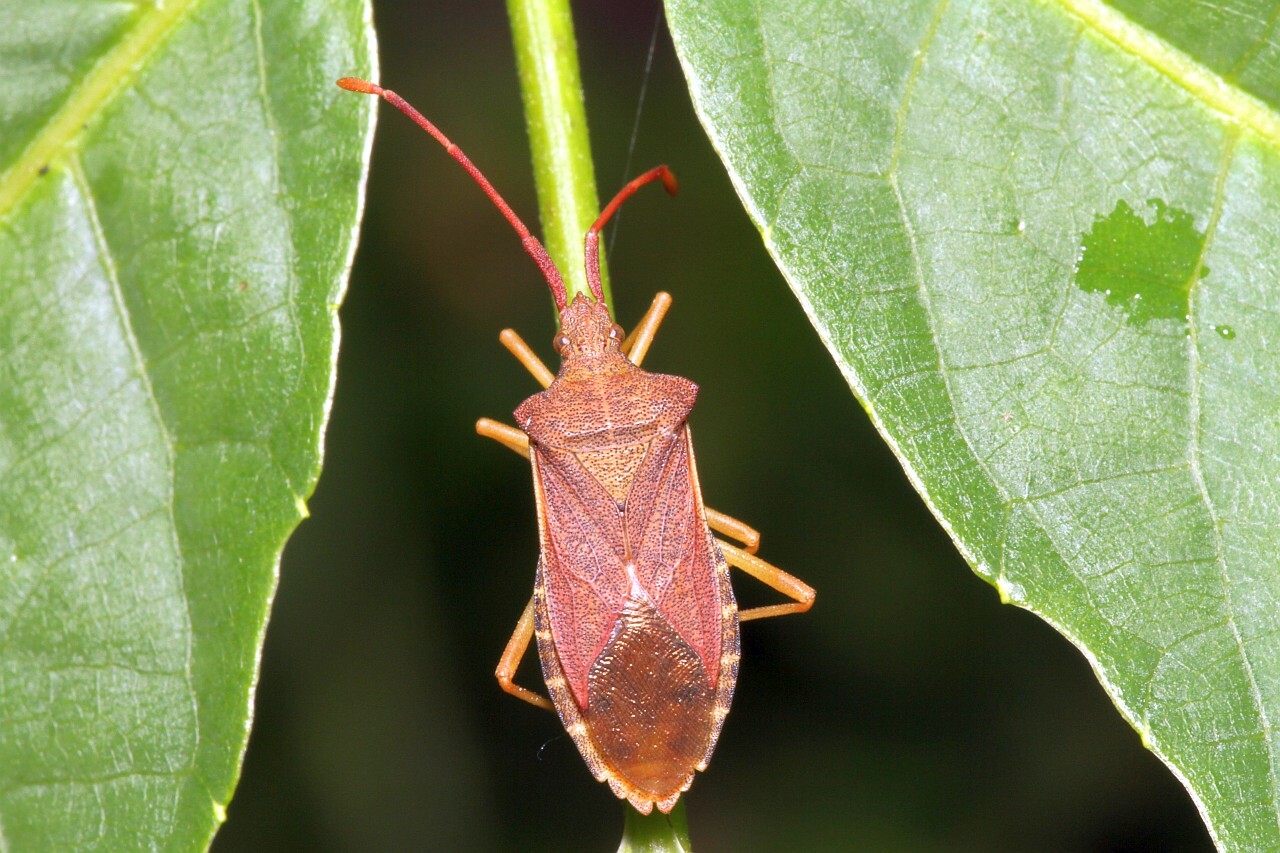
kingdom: Animalia
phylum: Arthropoda
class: Insecta
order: Hemiptera
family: Coreidae
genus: Gonocerus
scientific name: Gonocerus acuteangulatus
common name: Box bug
